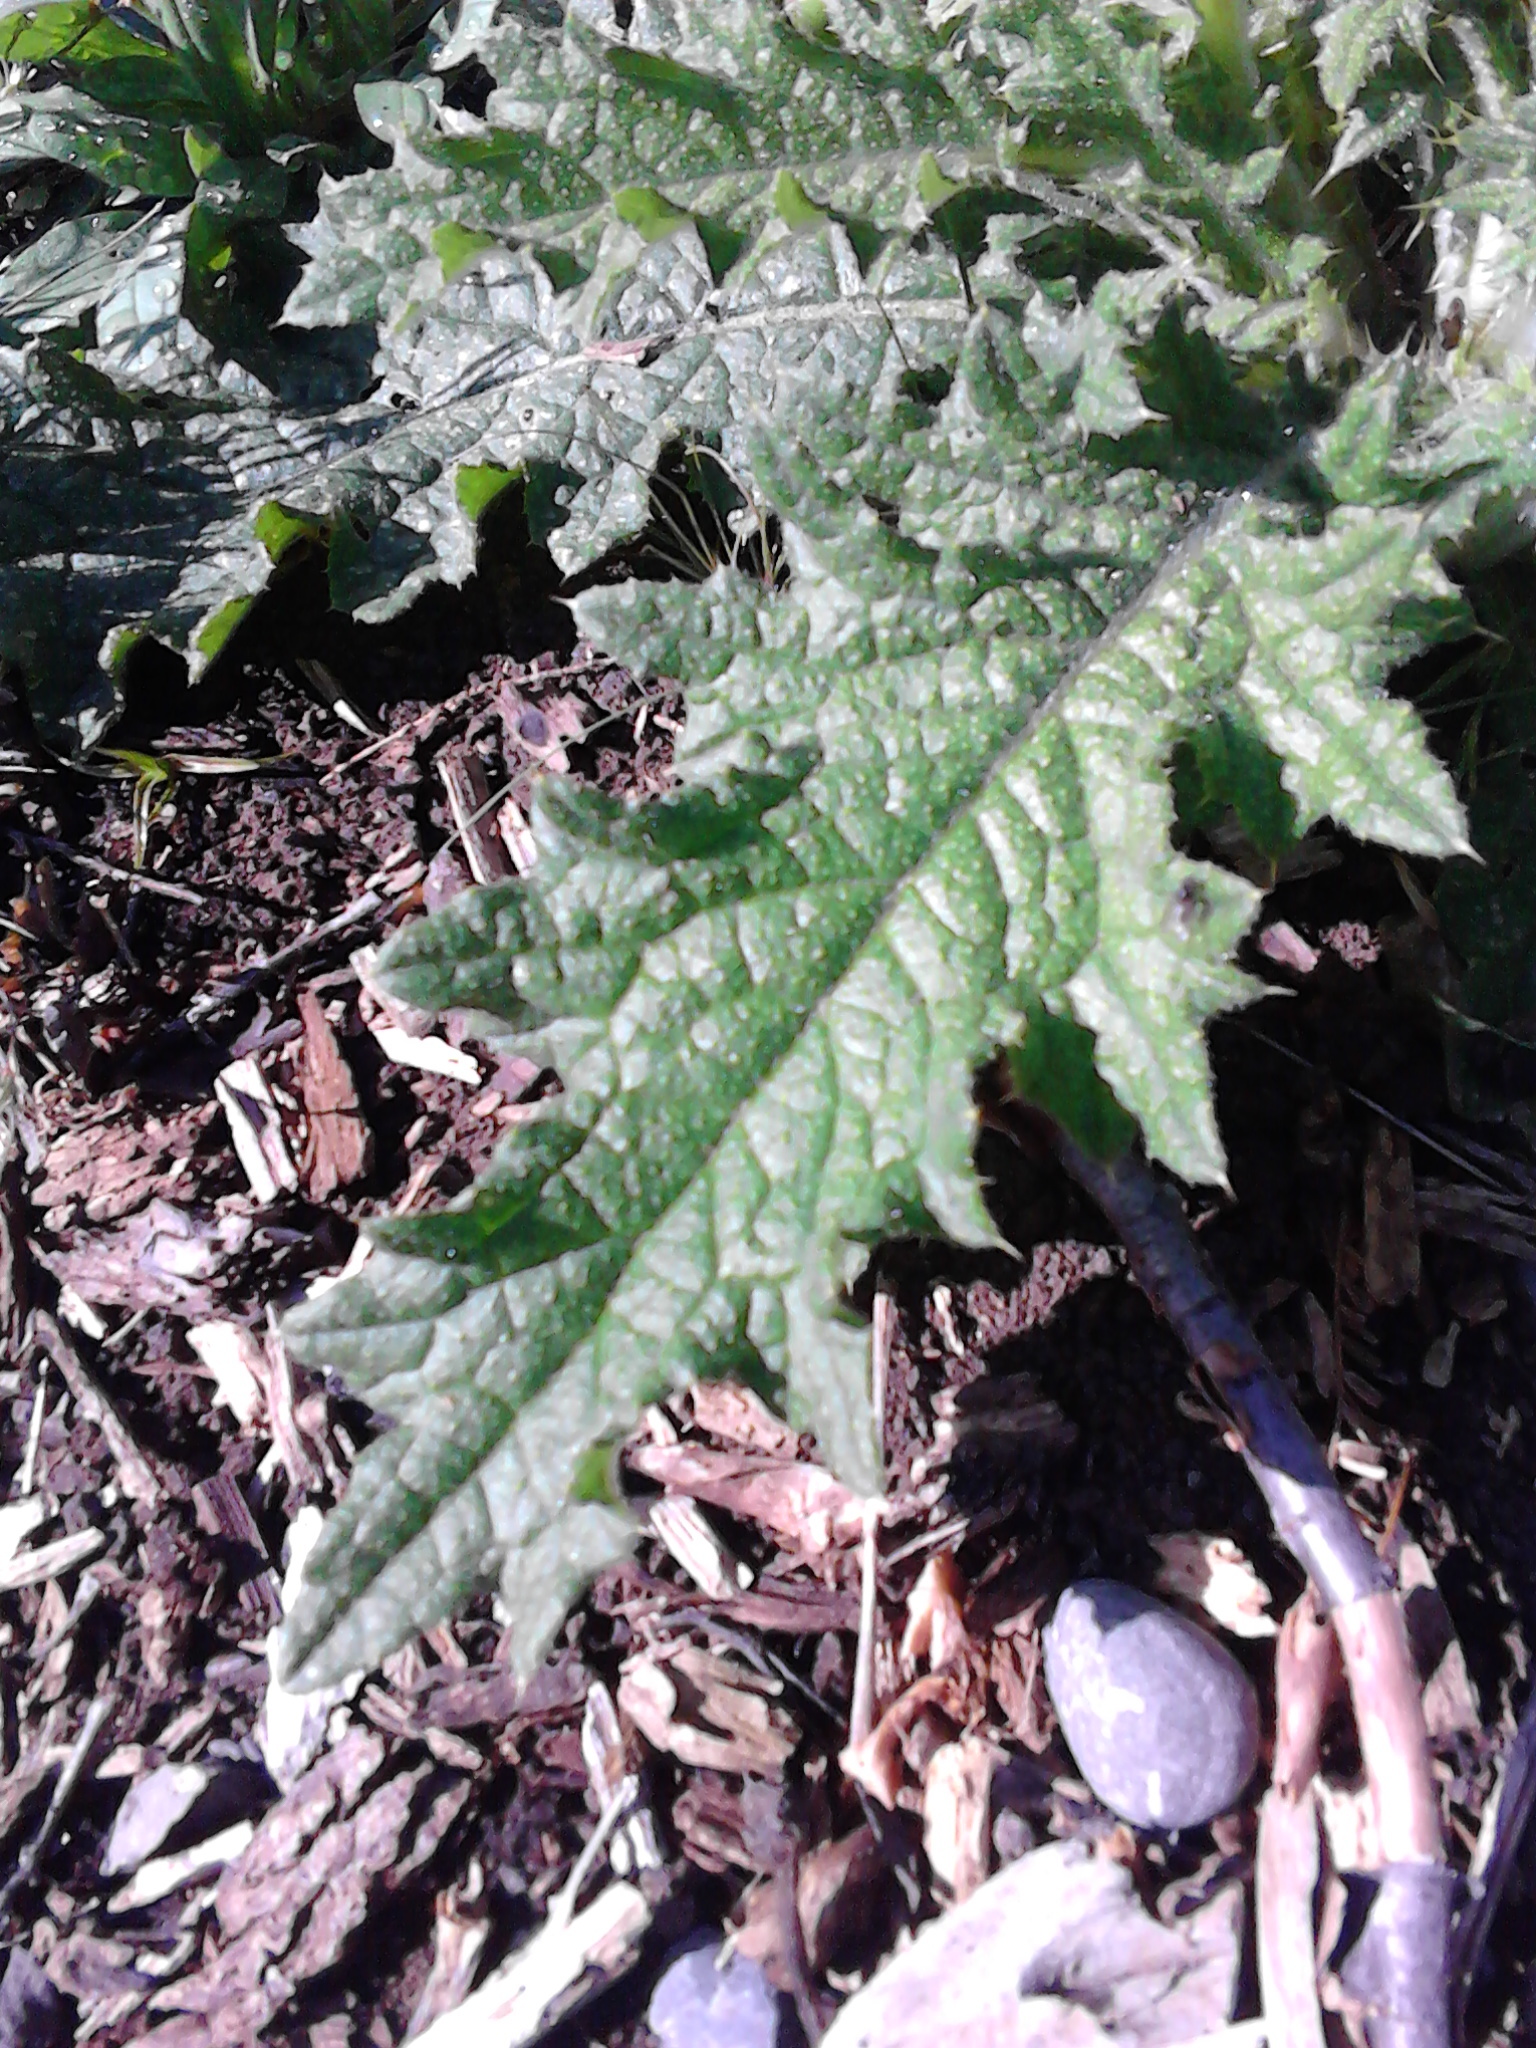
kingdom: Plantae
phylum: Tracheophyta
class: Magnoliopsida
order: Asterales
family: Asteraceae
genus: Cirsium
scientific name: Cirsium vulgare
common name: Bull thistle
